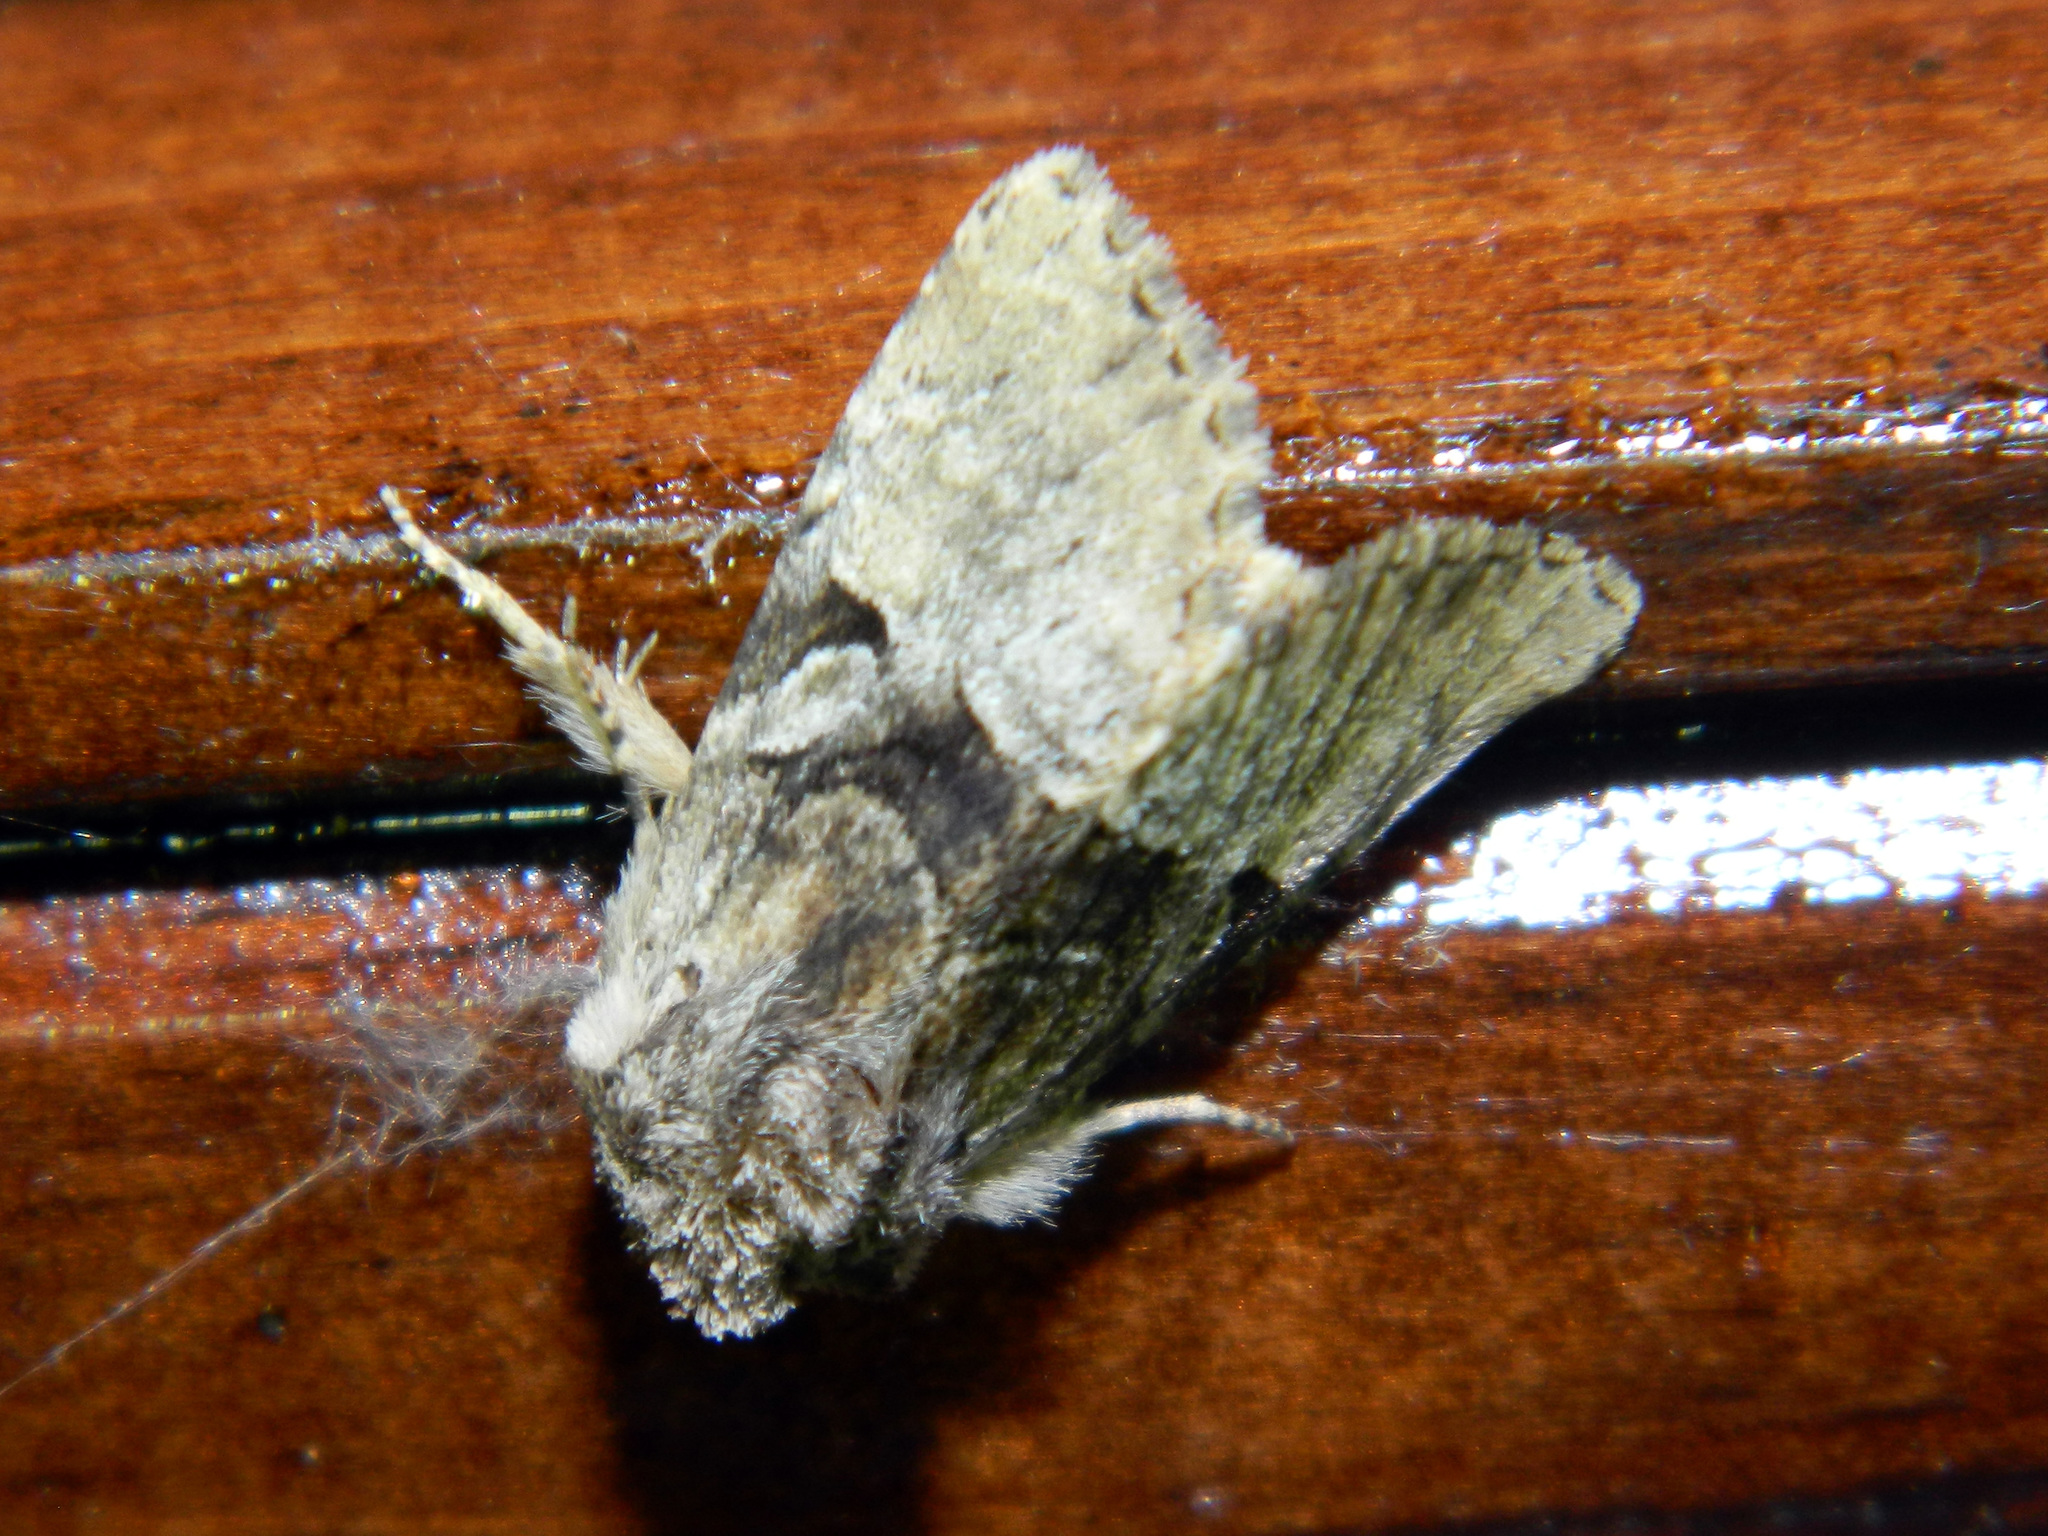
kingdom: Animalia
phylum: Arthropoda
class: Insecta
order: Lepidoptera
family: Noctuidae
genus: Meropleon
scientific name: Meropleon diversicolor
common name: Multicolored sedgeminer moth
